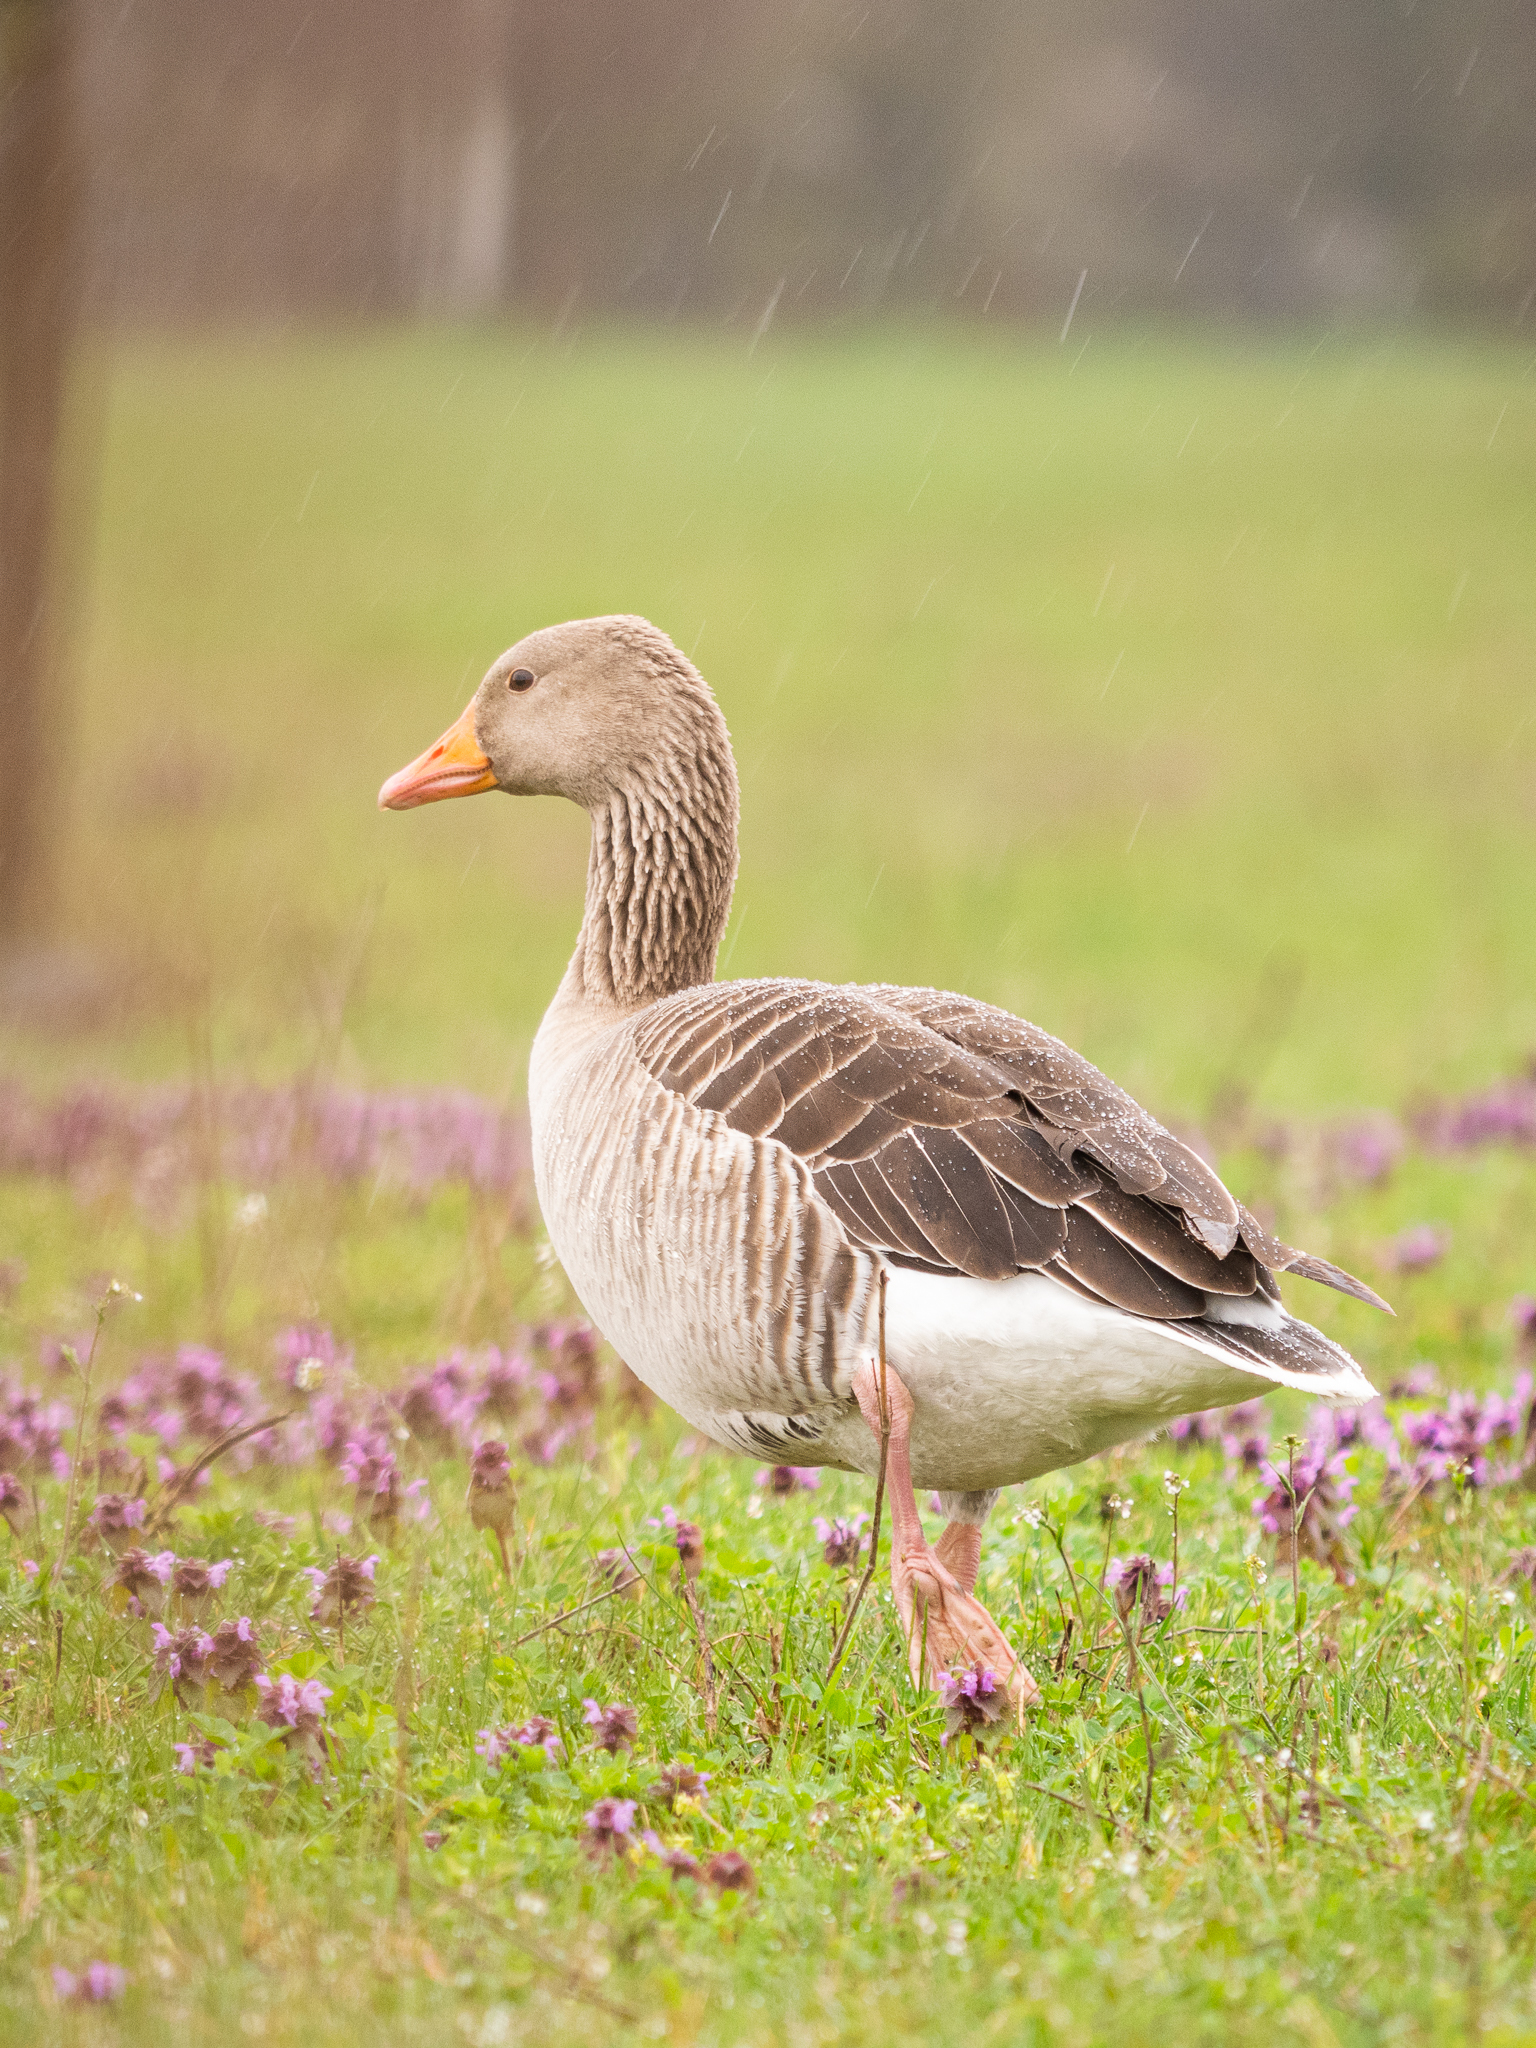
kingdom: Animalia
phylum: Chordata
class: Aves
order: Anseriformes
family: Anatidae
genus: Anser
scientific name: Anser anser
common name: Greylag goose
